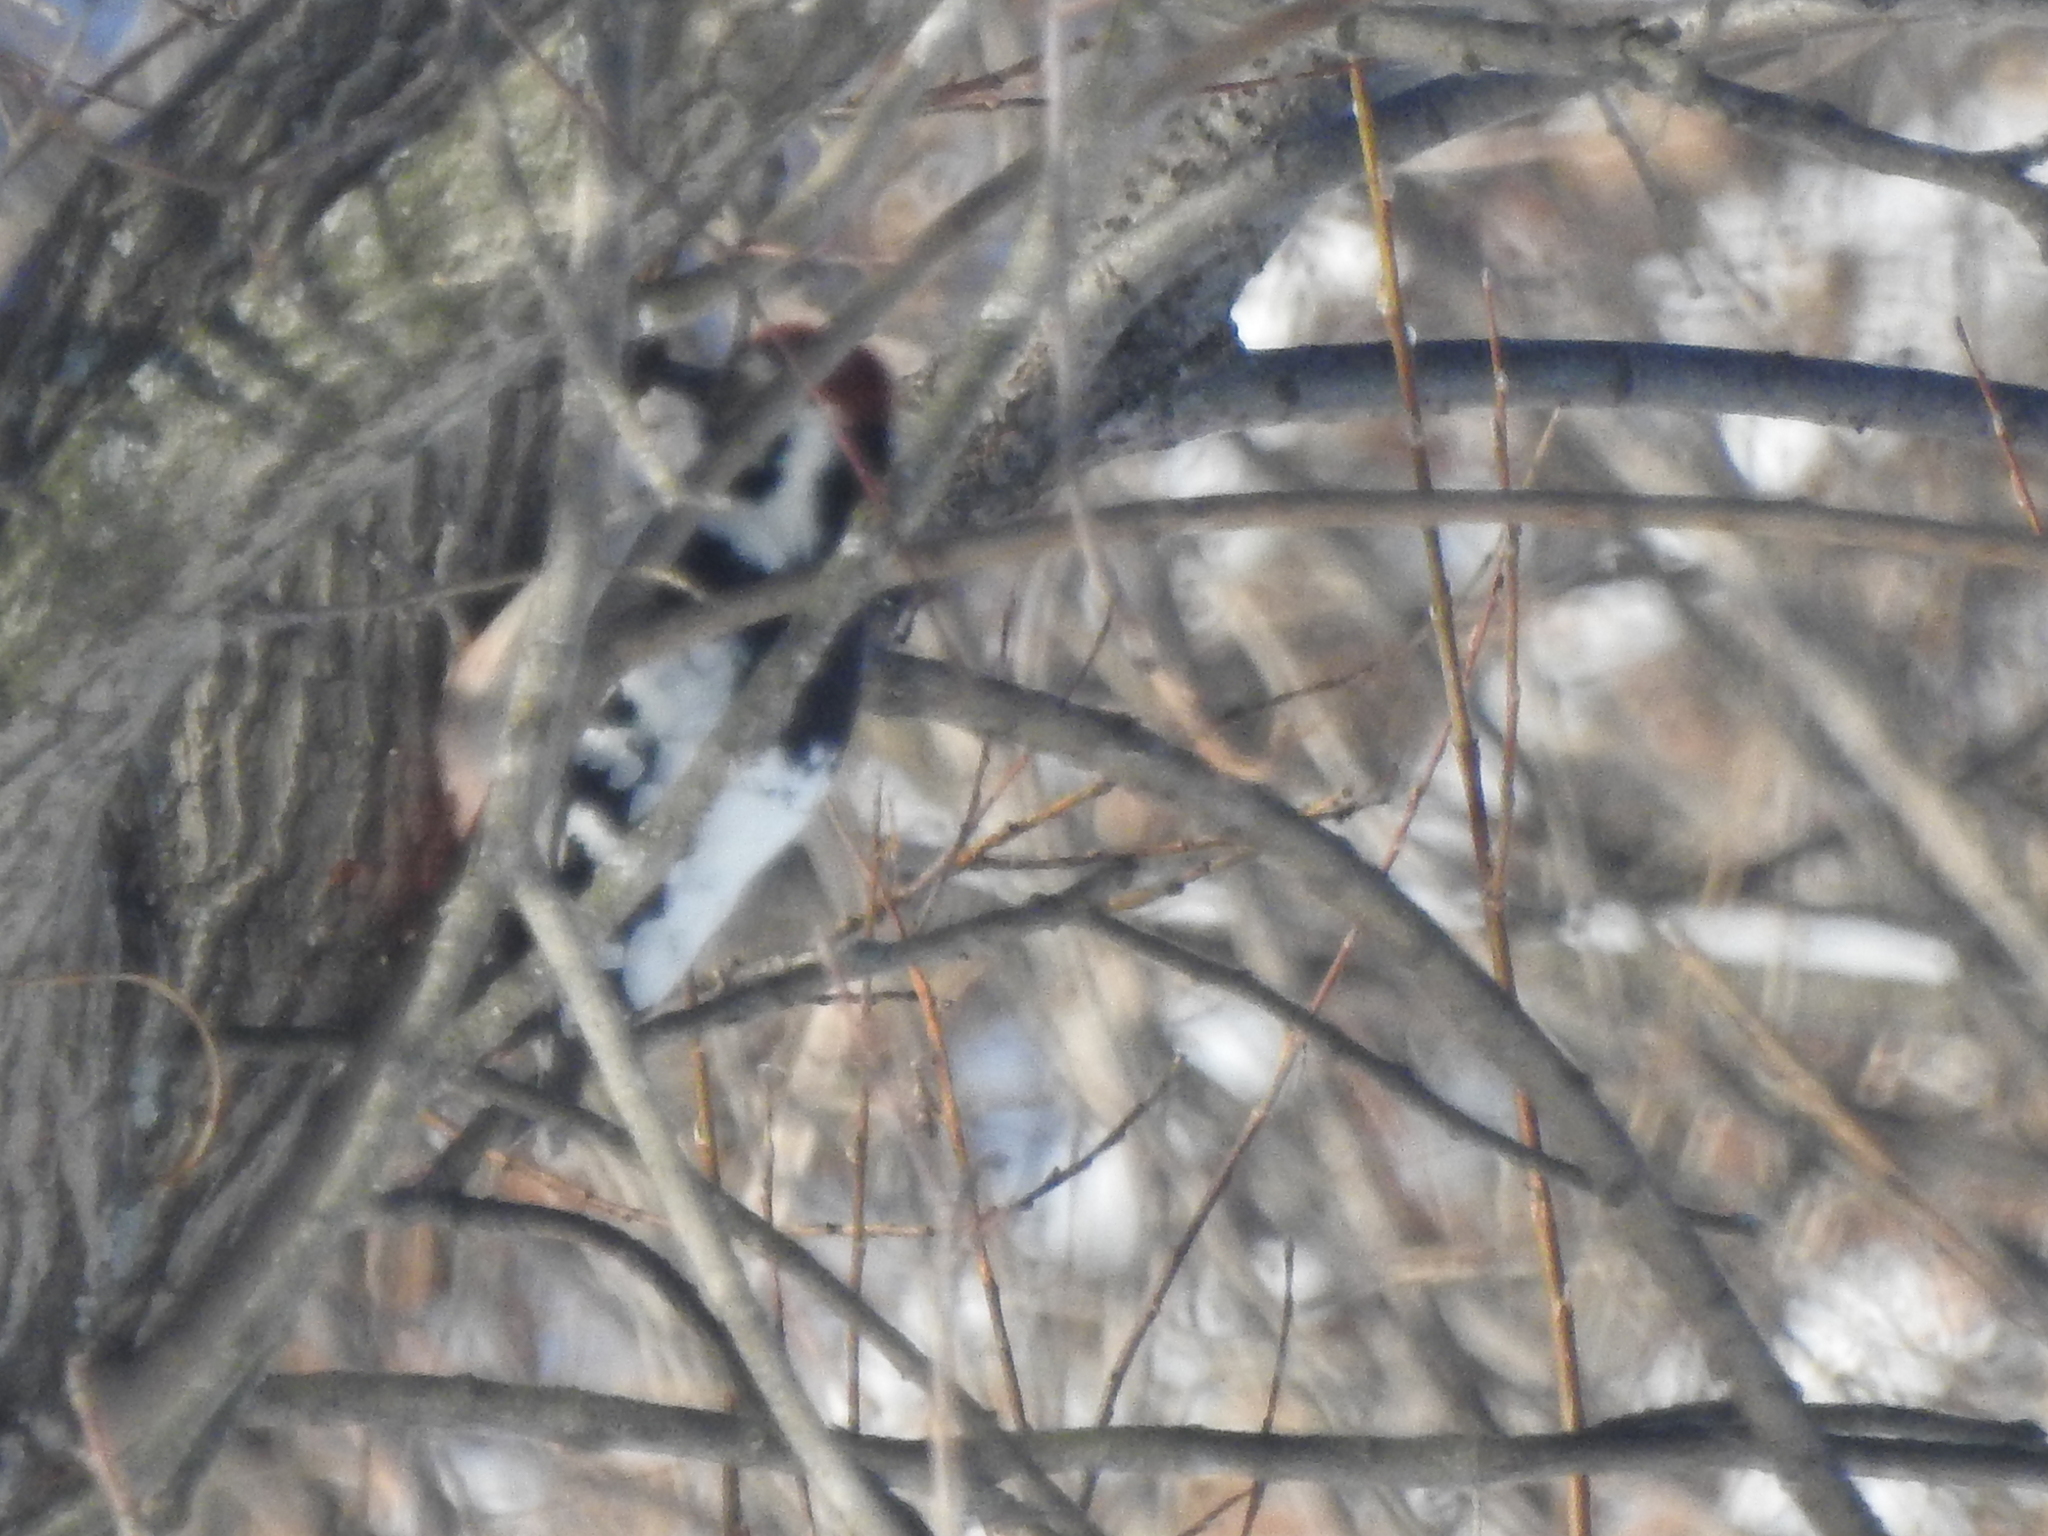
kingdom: Animalia
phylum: Chordata
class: Aves
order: Piciformes
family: Picidae
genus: Dendrocopos
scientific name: Dendrocopos leucotos
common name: White-backed woodpecker
